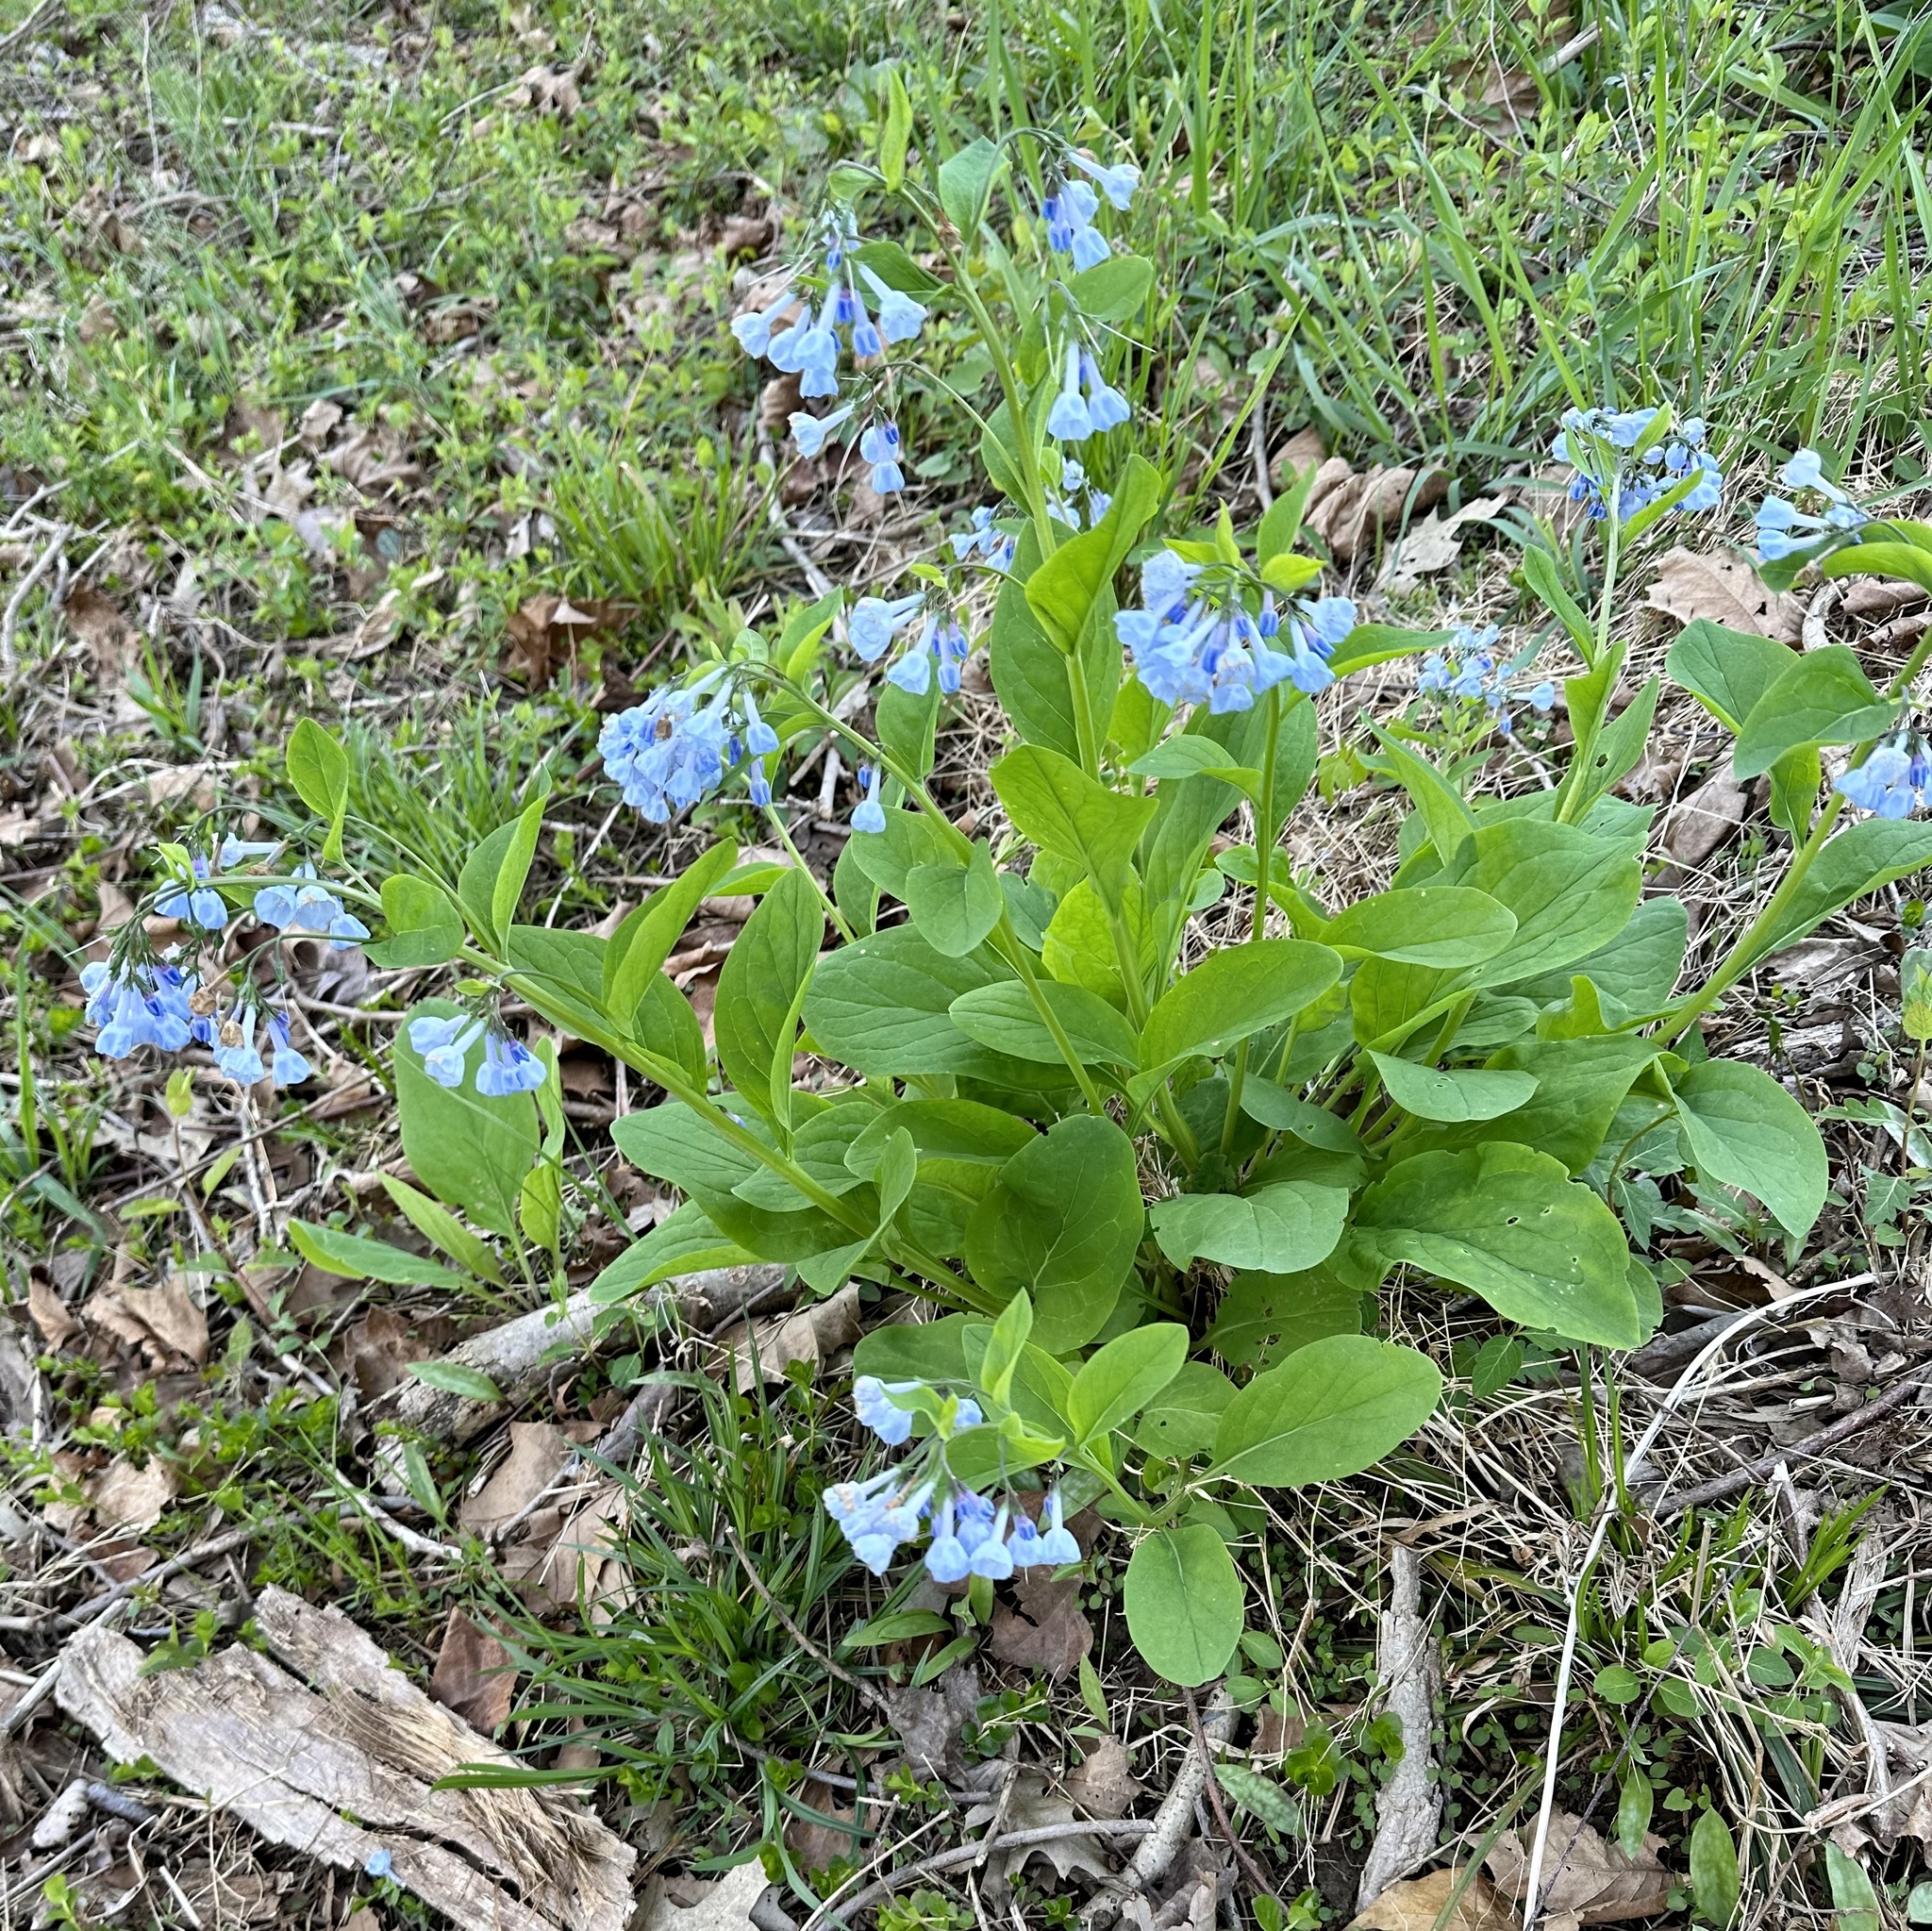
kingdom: Plantae
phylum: Tracheophyta
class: Magnoliopsida
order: Boraginales
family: Boraginaceae
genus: Mertensia
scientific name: Mertensia virginica
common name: Virginia bluebells
